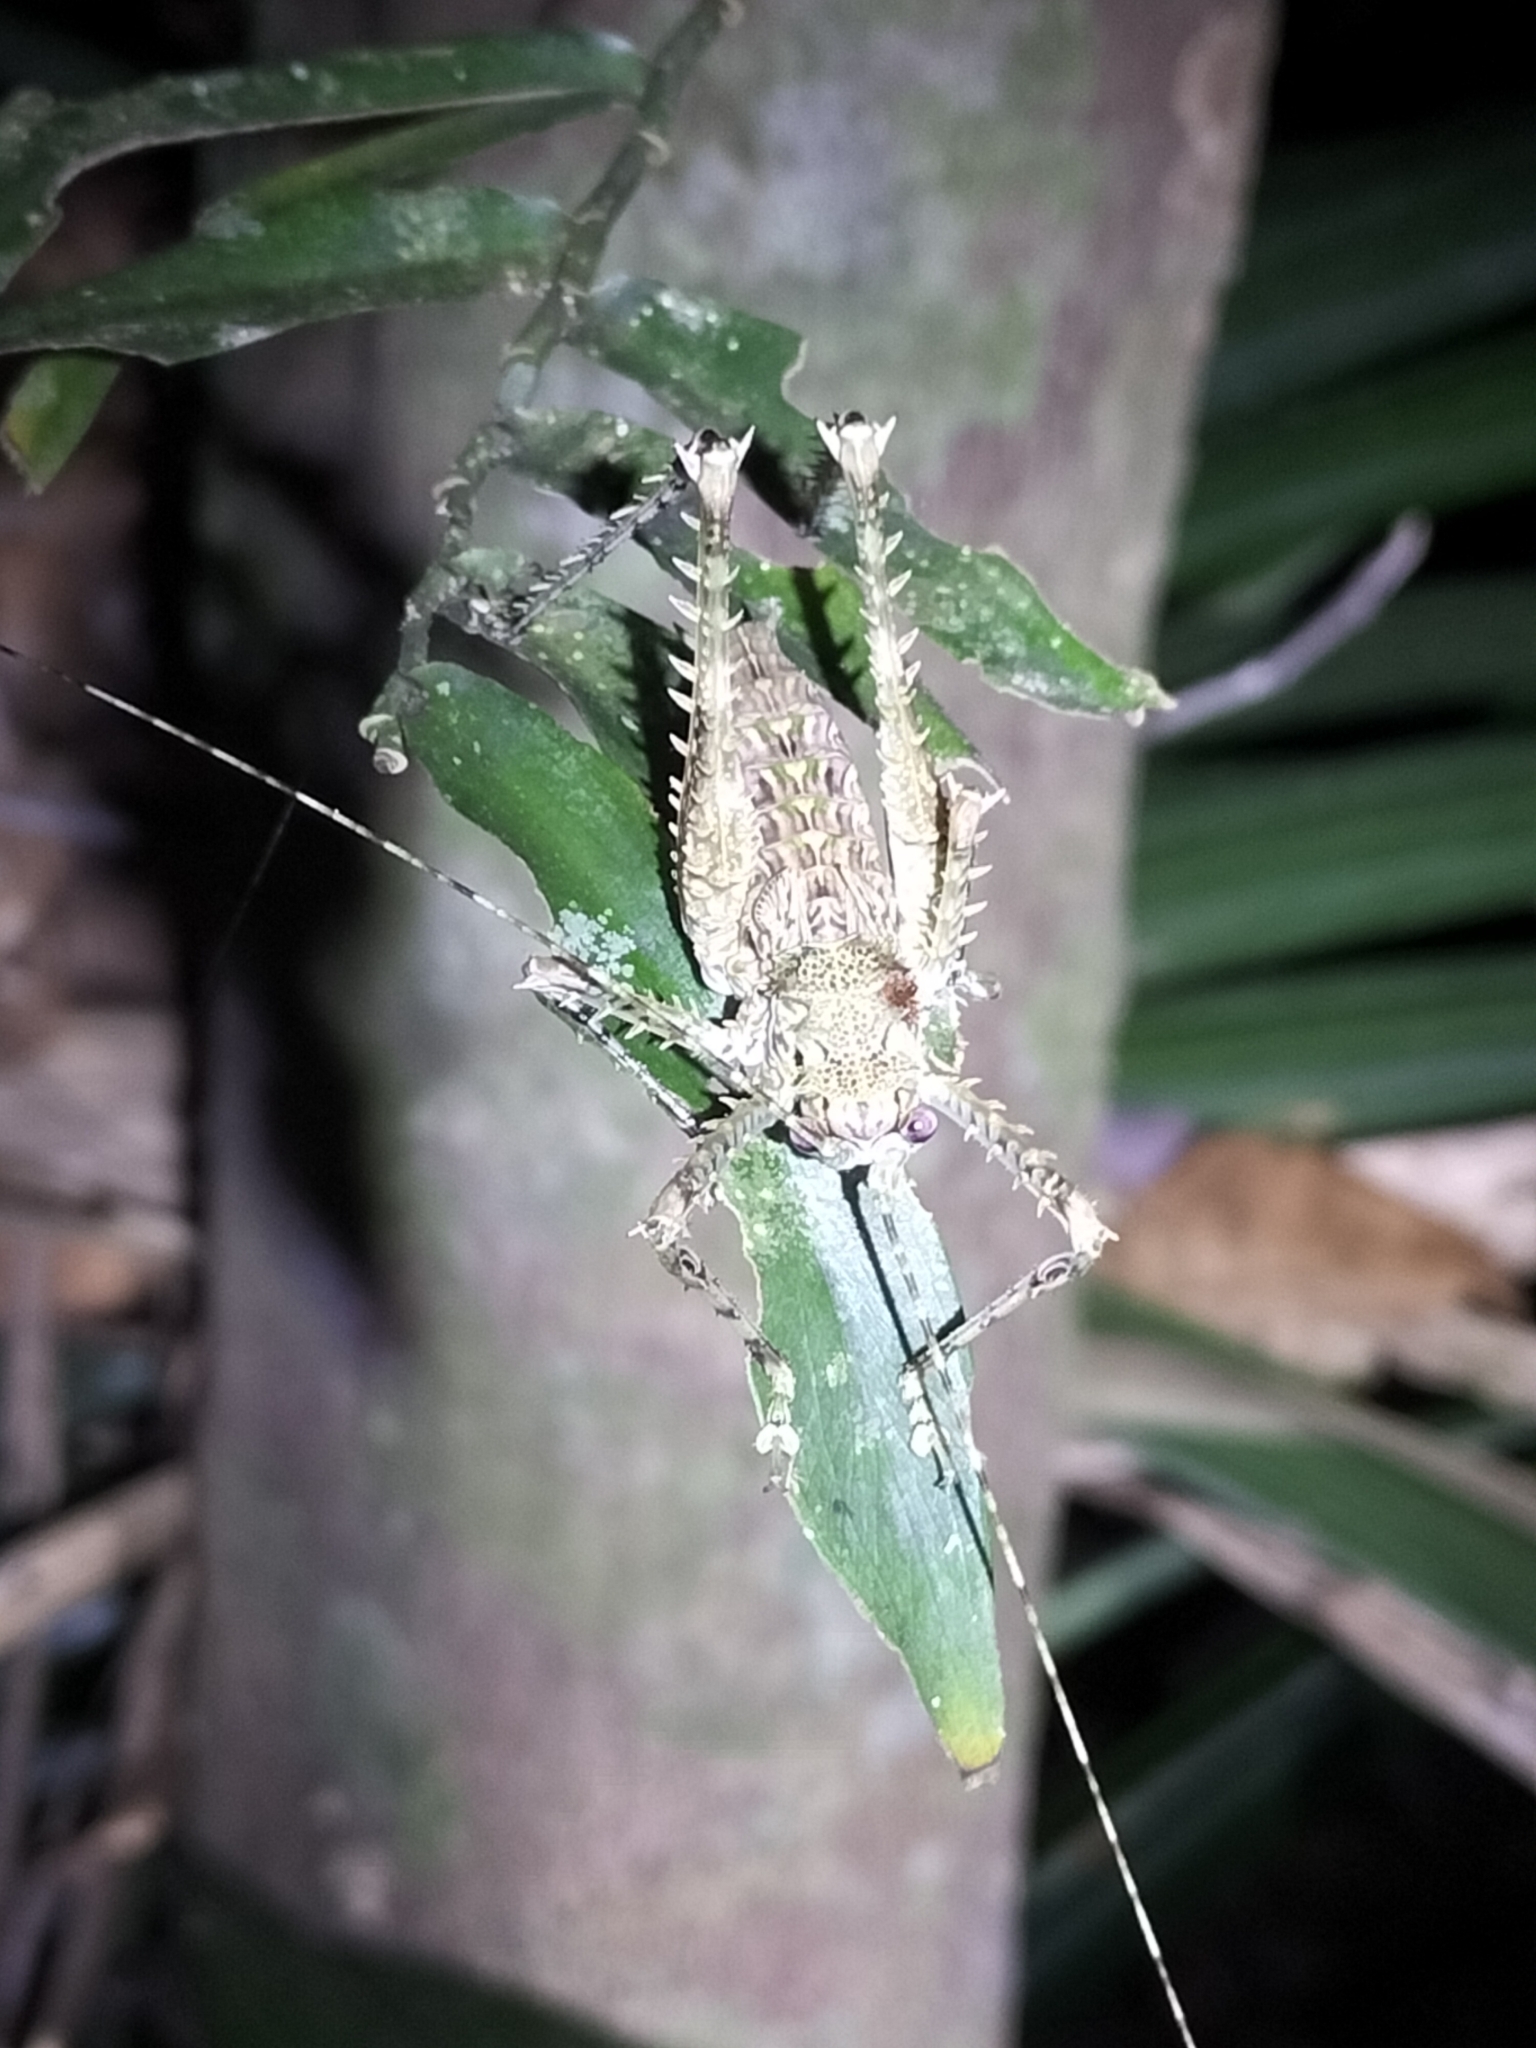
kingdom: Animalia
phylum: Arthropoda
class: Insecta
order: Orthoptera
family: Tettigoniidae
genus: Phricta
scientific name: Phricta spinosa
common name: Giant spiny forest katydid
